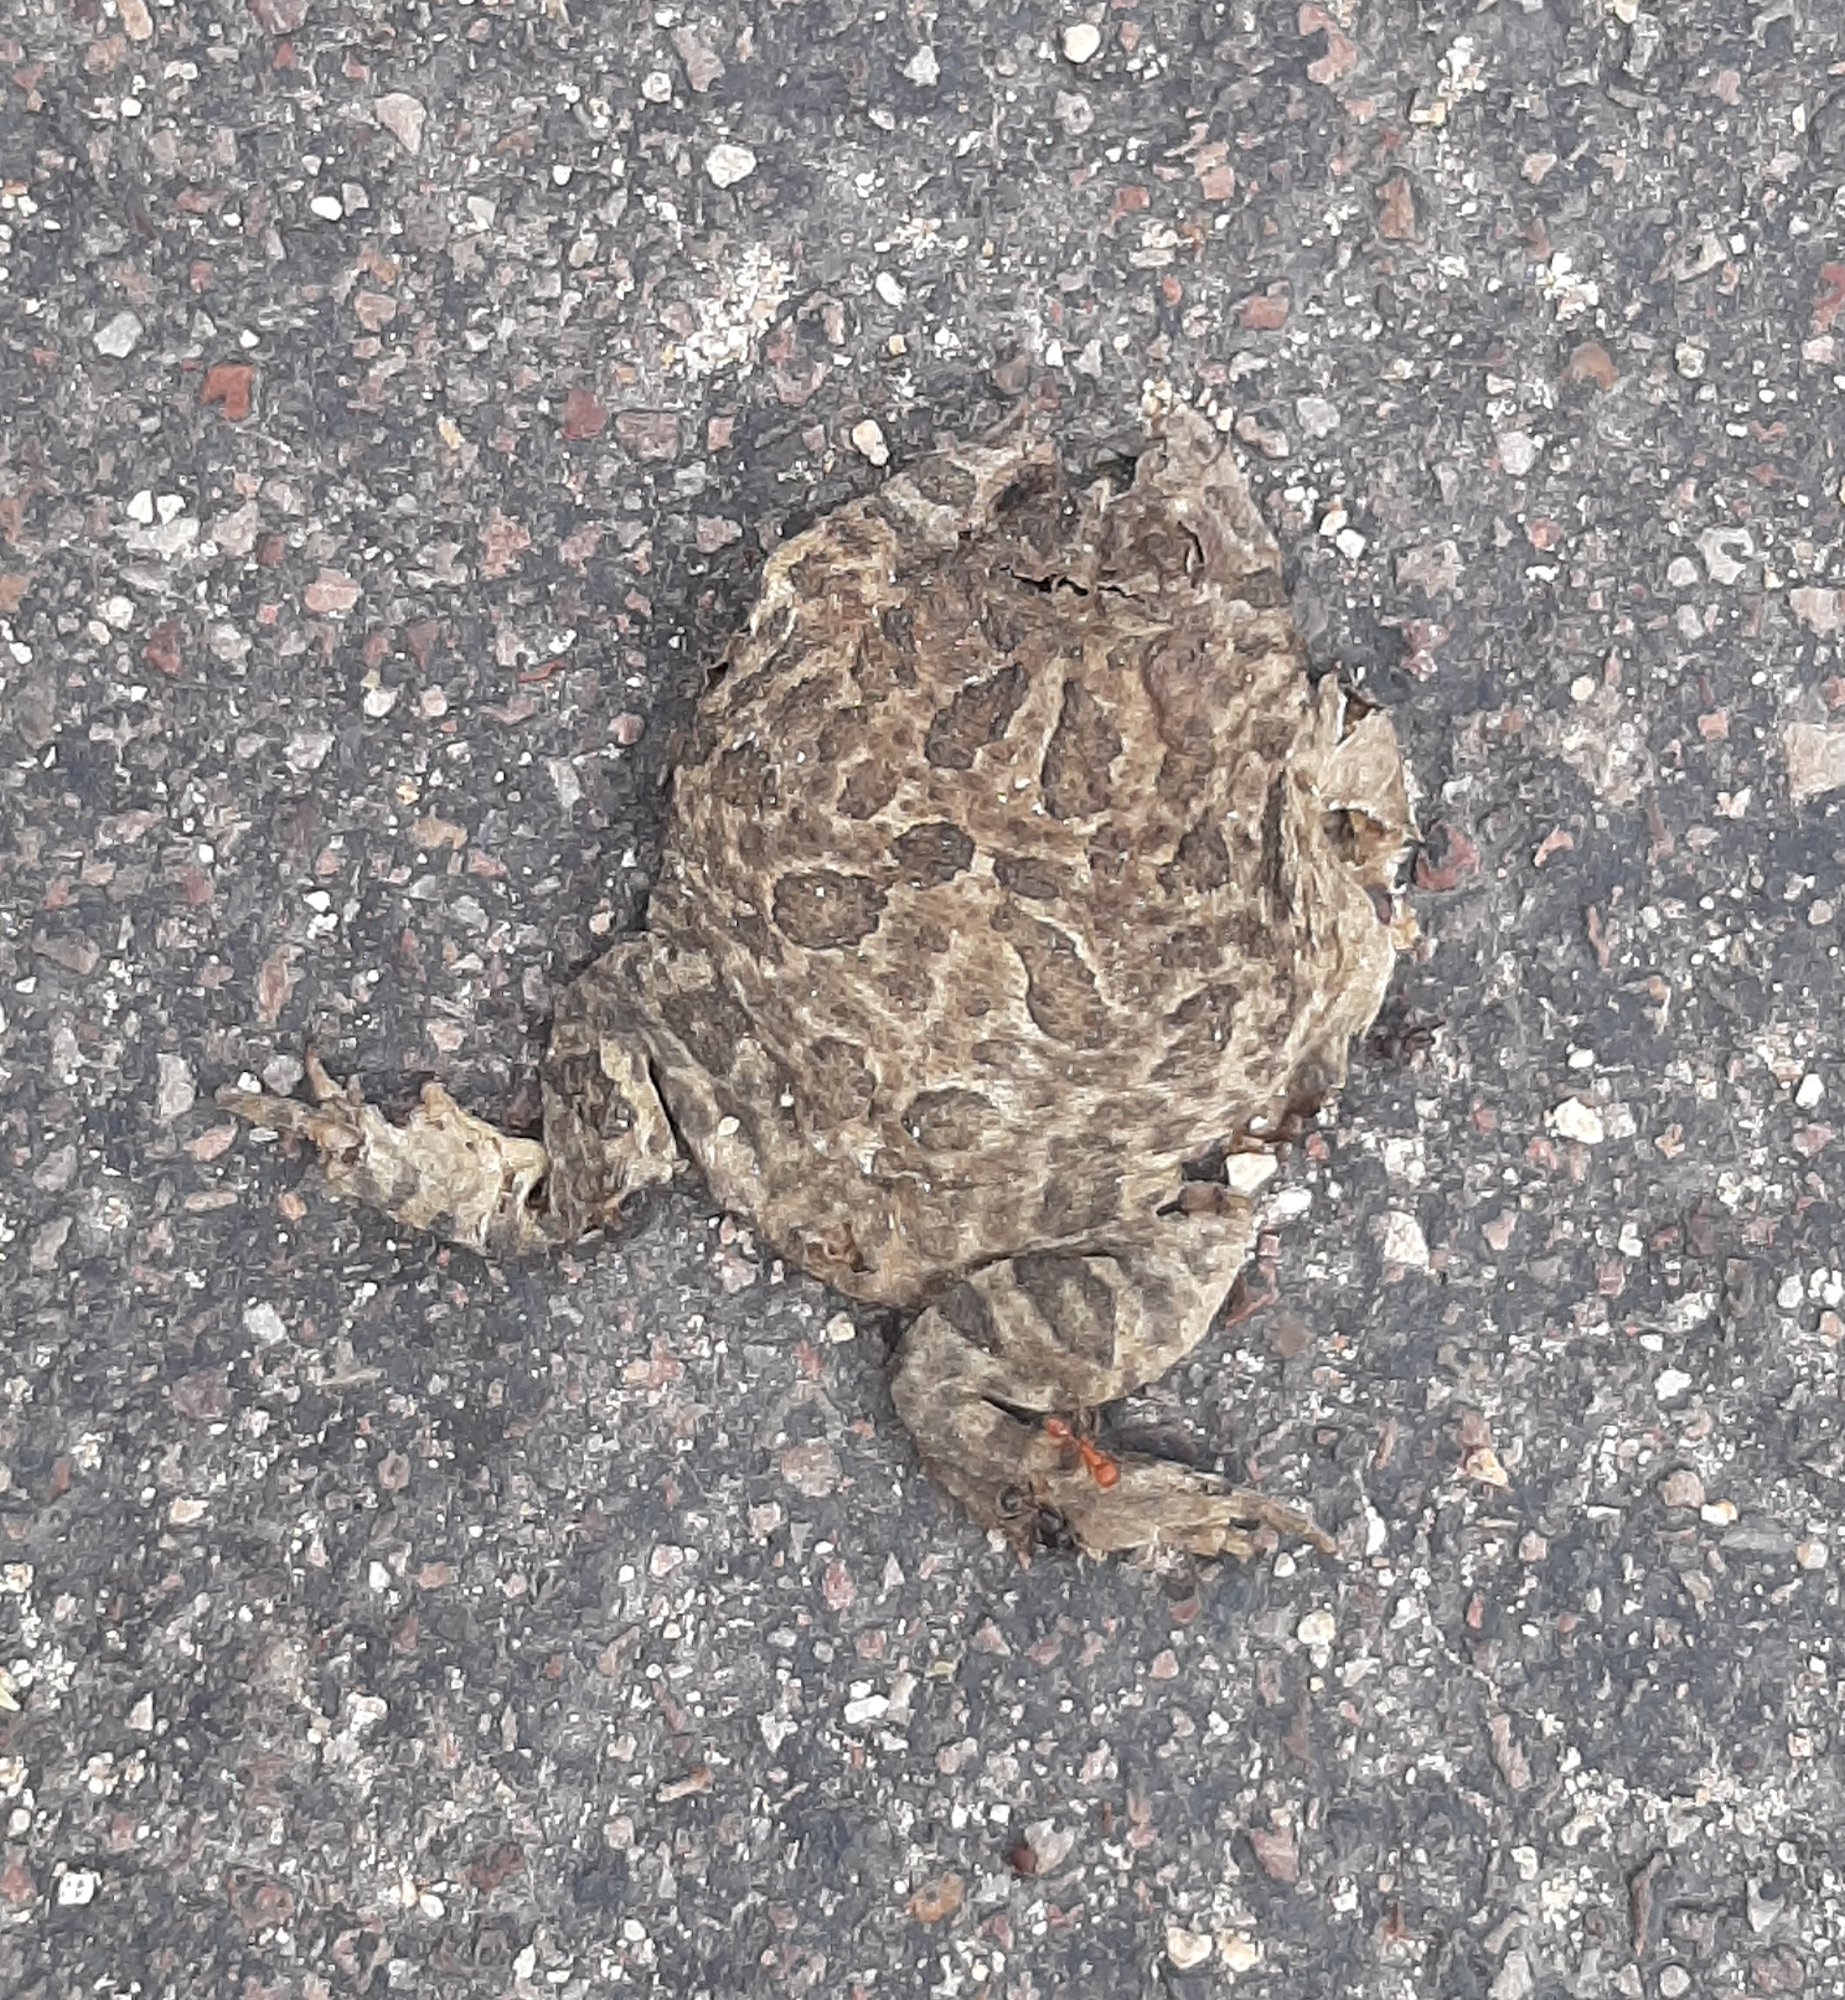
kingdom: Animalia
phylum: Chordata
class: Amphibia
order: Anura
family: Bufonidae
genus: Anaxyrus
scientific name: Anaxyrus cognatus
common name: Great plains toad
